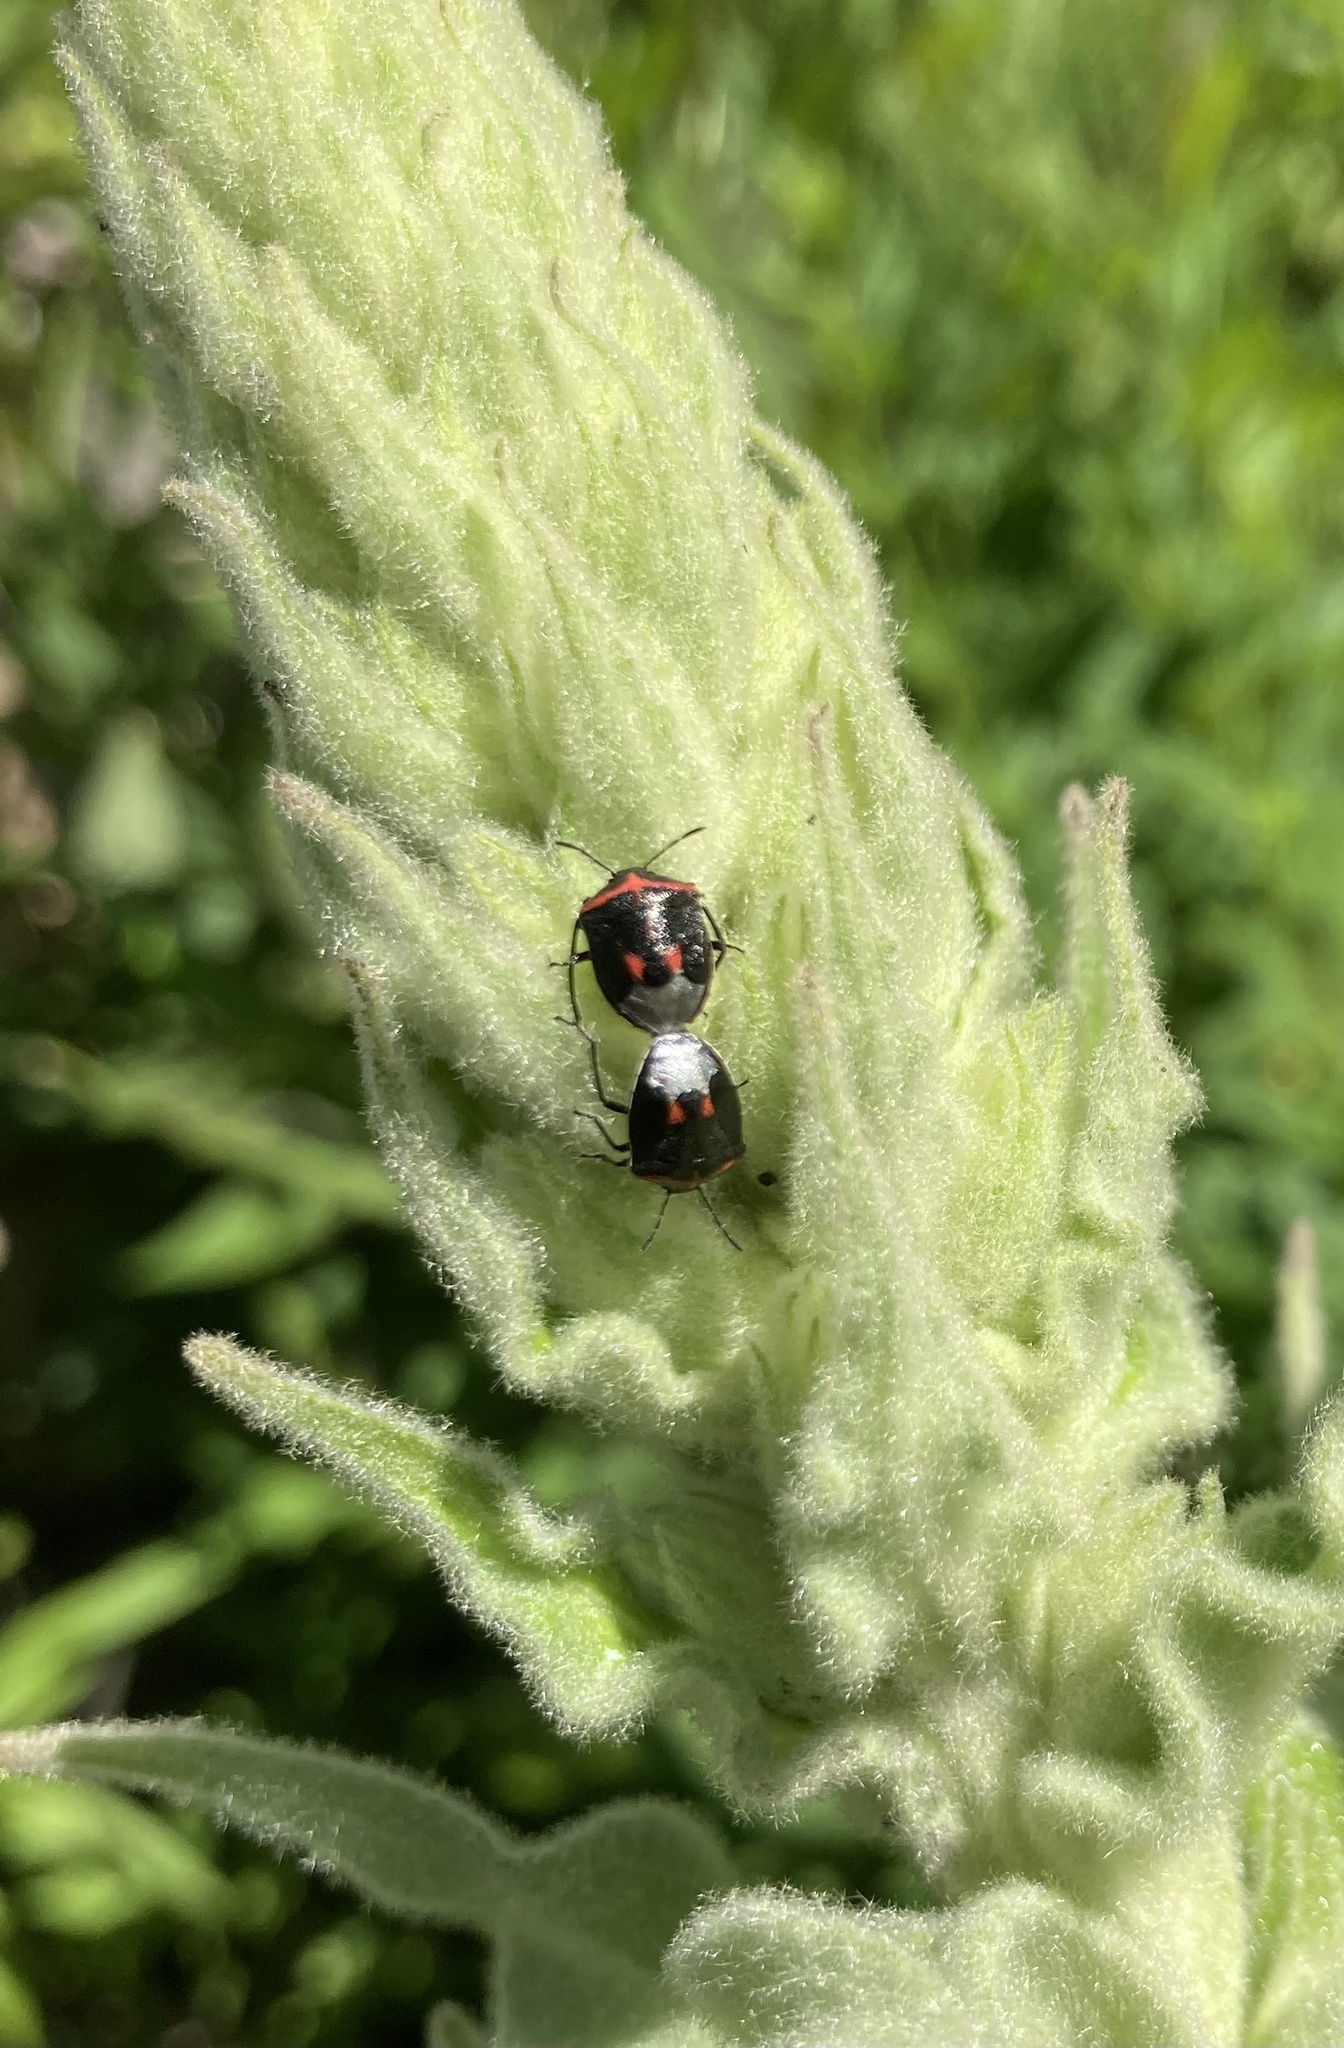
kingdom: Animalia
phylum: Arthropoda
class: Insecta
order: Hemiptera
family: Pentatomidae
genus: Cosmopepla
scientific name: Cosmopepla lintneriana
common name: Twice-stabbed stink bug
